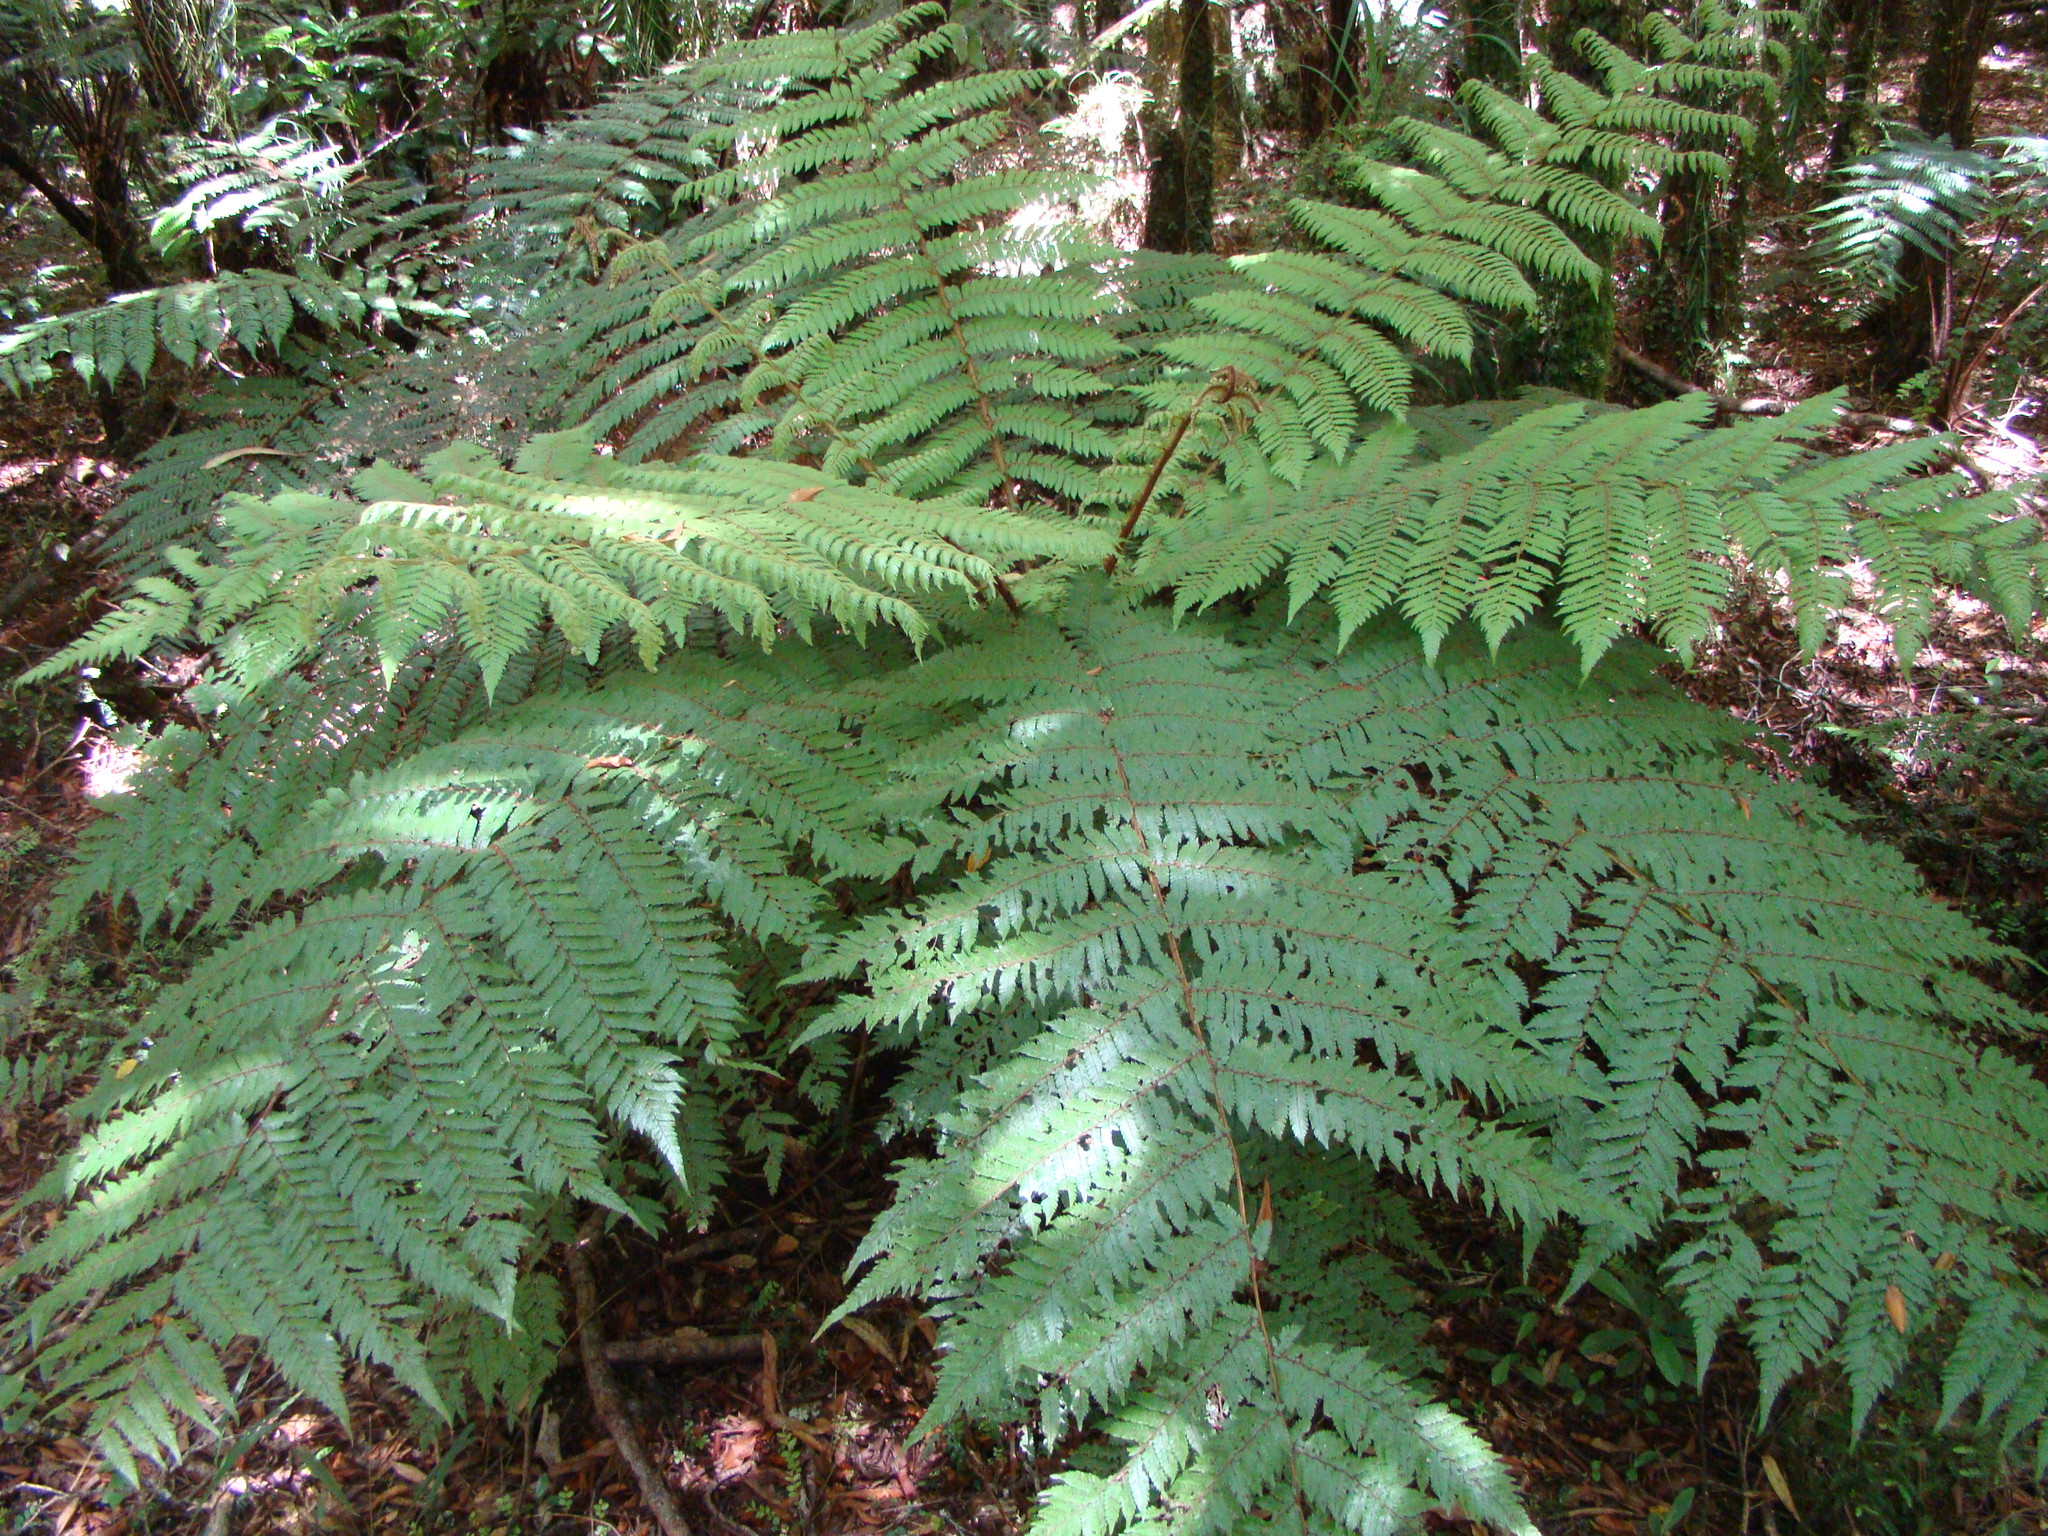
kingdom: Plantae
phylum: Tracheophyta
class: Polypodiopsida
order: Cyatheales
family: Cyatheaceae
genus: Alsophila
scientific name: Alsophila smithii
